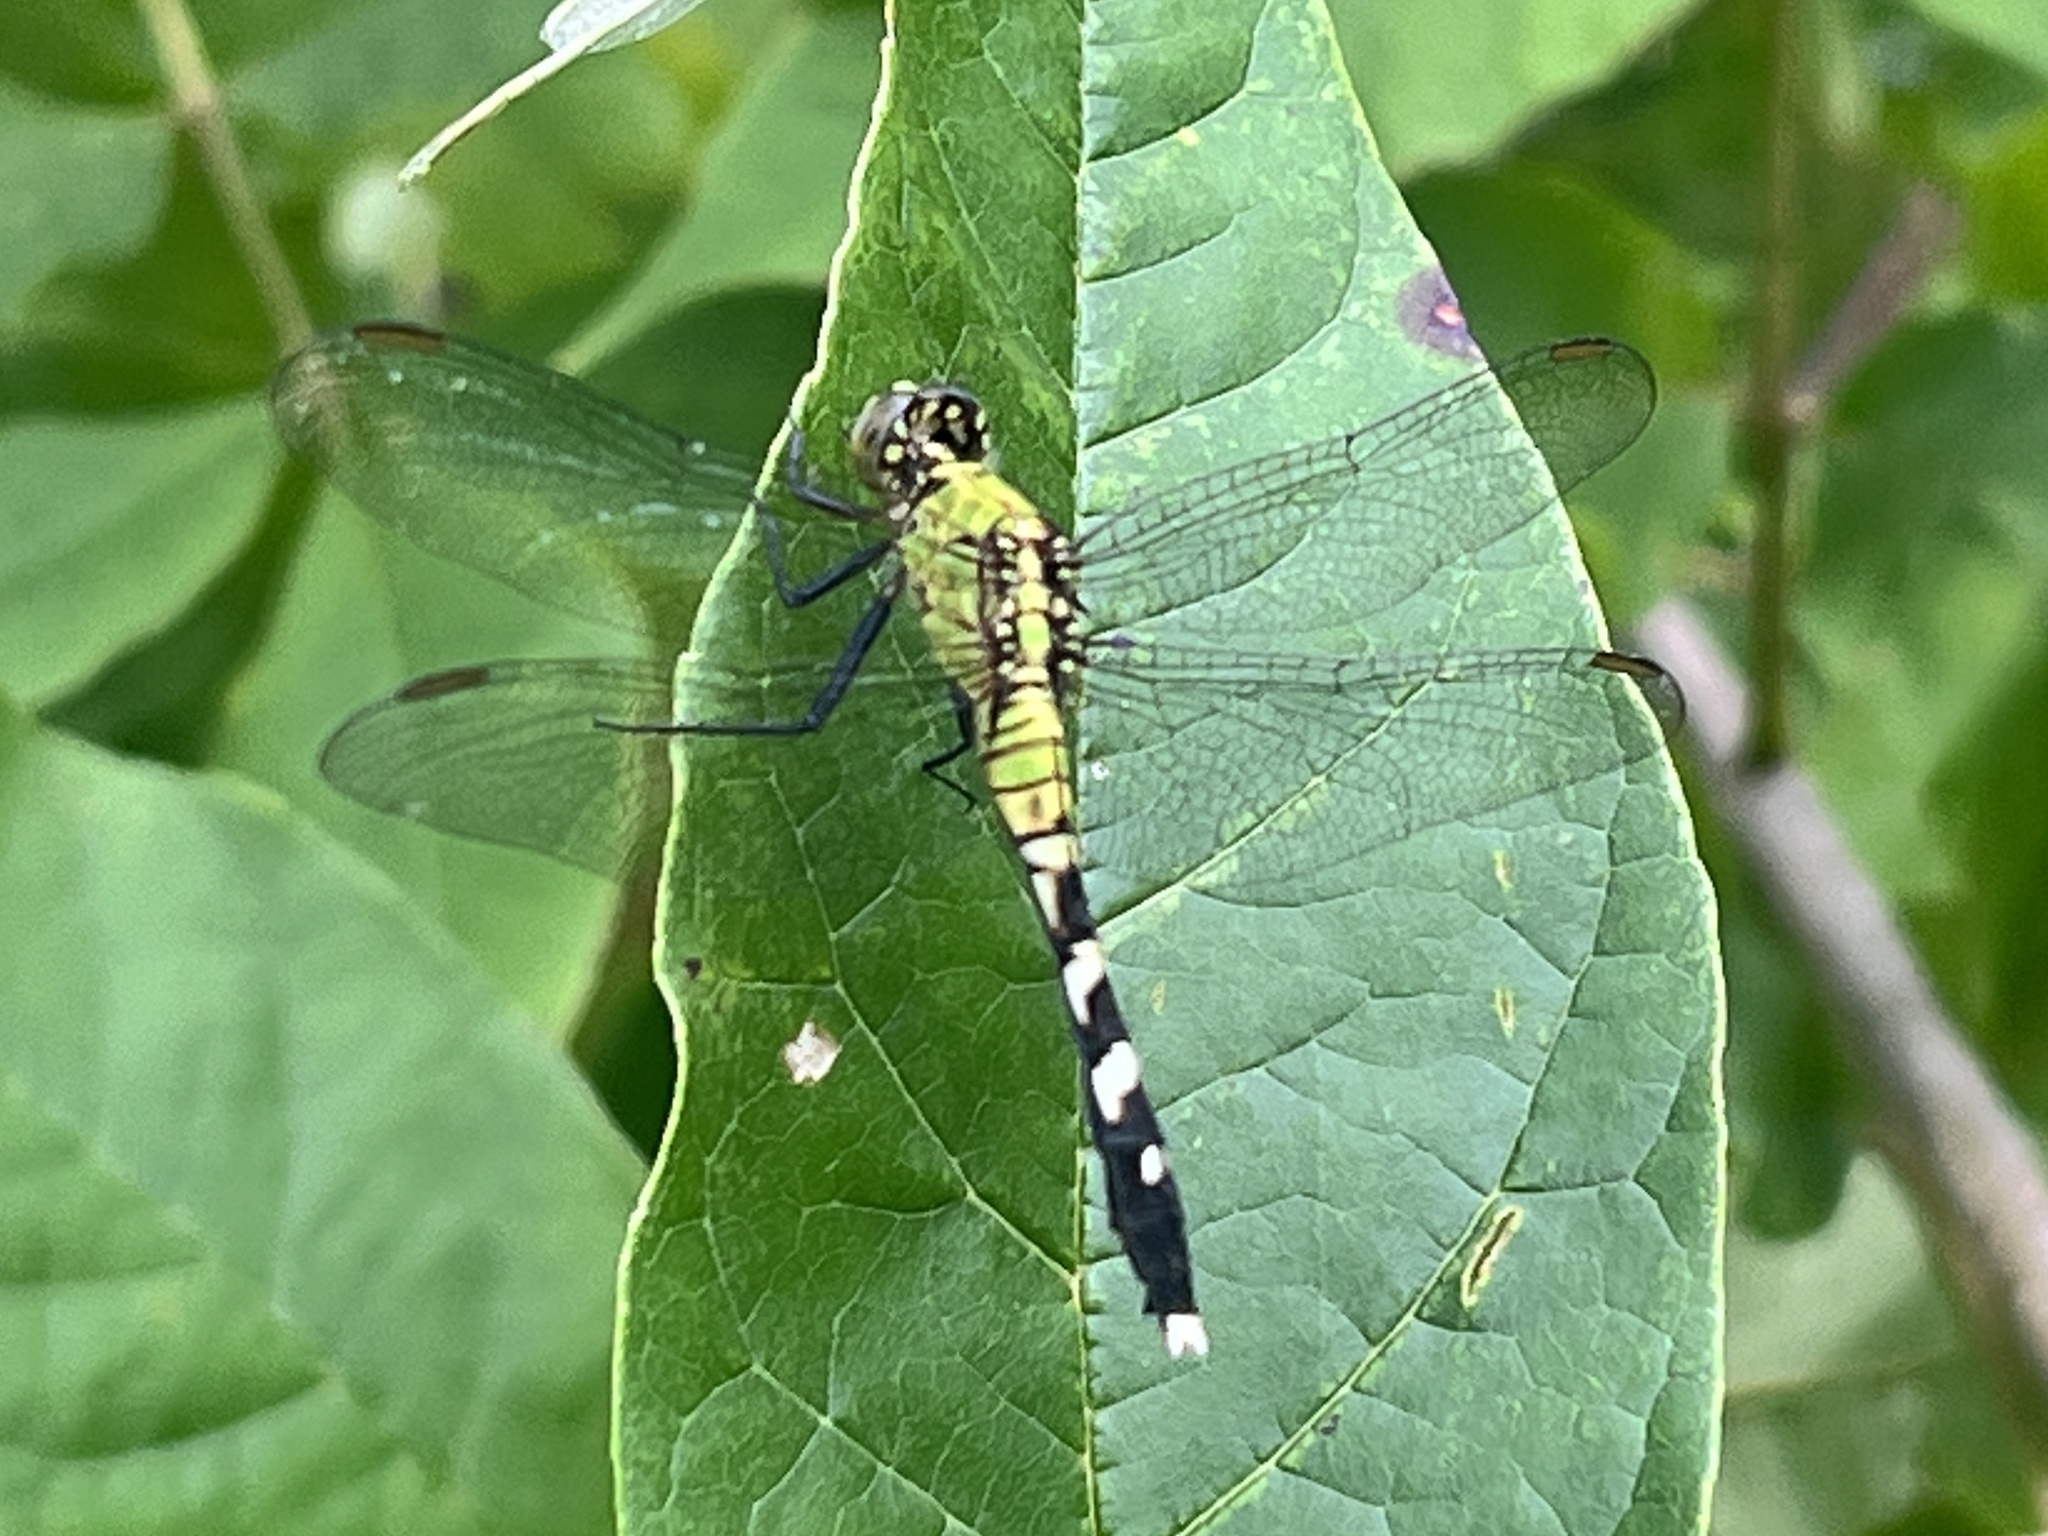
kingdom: Animalia
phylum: Arthropoda
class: Insecta
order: Odonata
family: Libellulidae
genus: Erythemis
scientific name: Erythemis simplicicollis
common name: Eastern pondhawk
